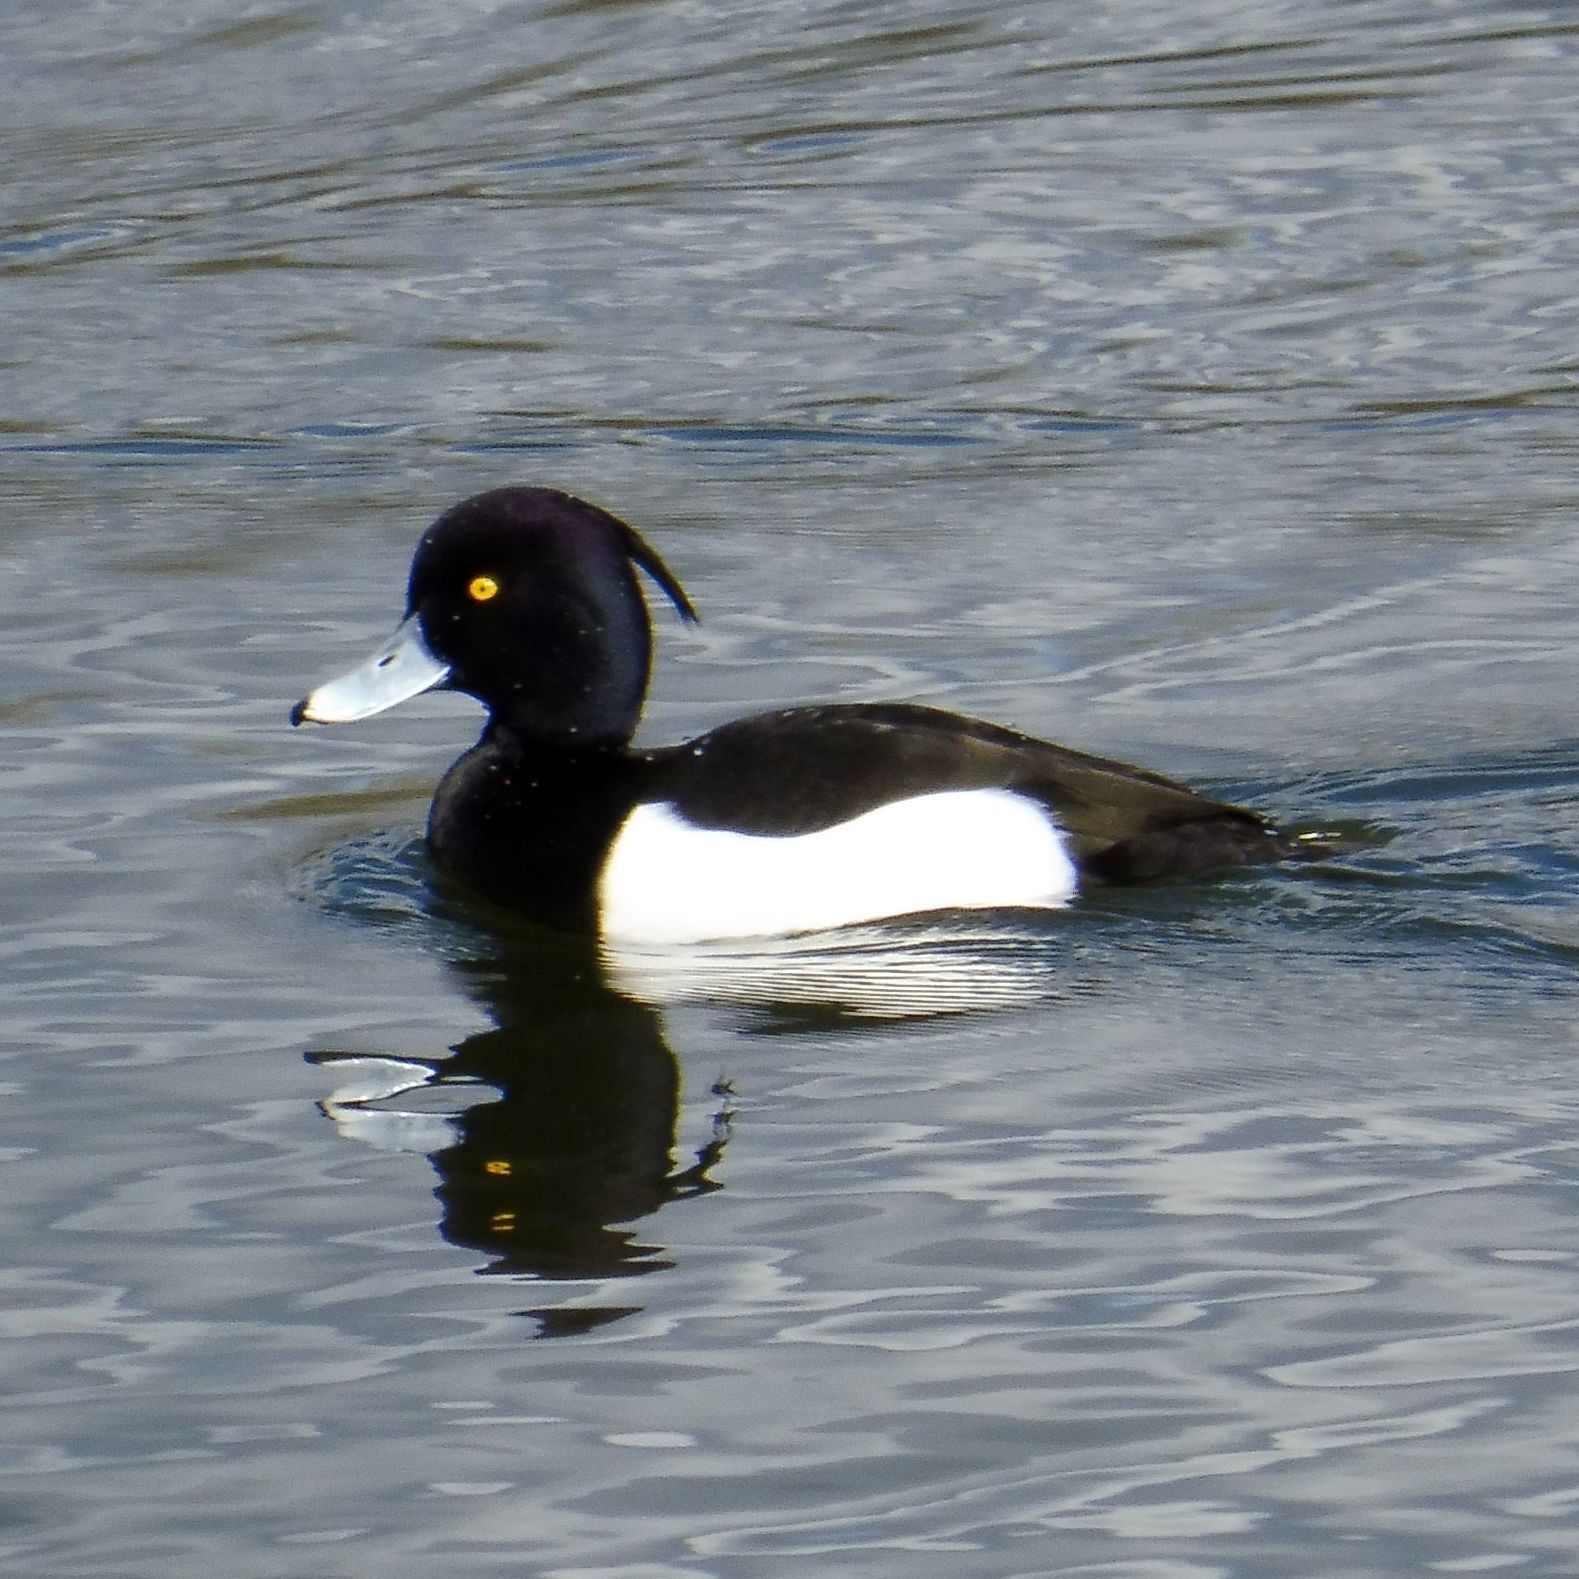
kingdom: Animalia
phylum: Chordata
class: Aves
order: Anseriformes
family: Anatidae
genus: Aythya
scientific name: Aythya fuligula
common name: Tufted duck
